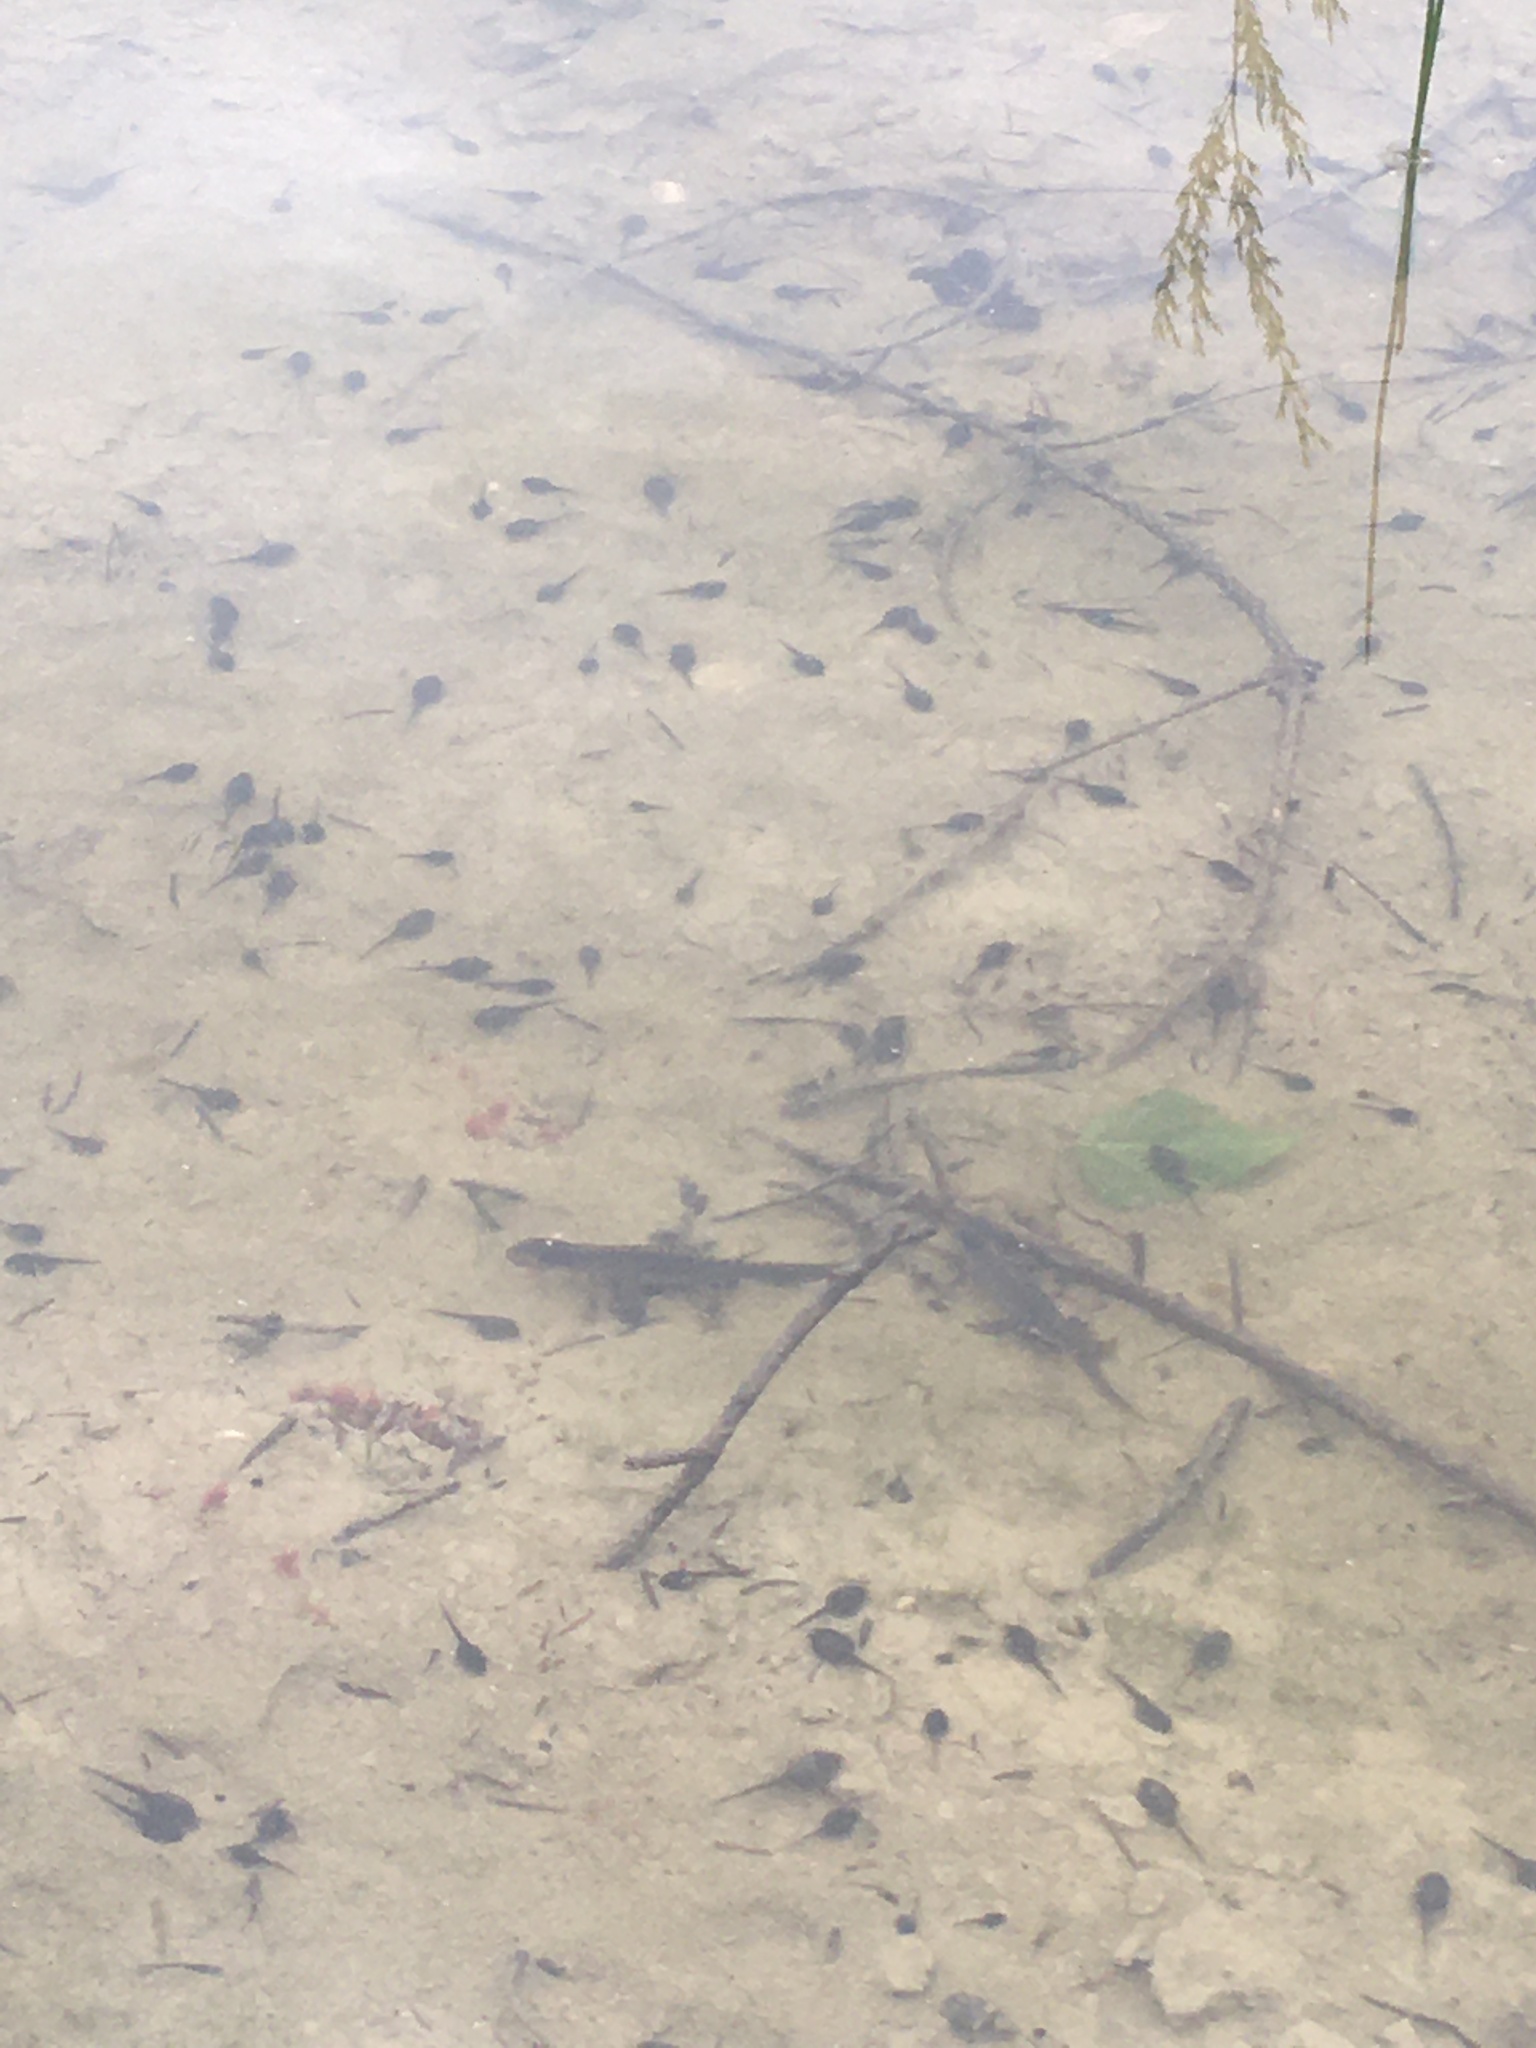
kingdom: Animalia
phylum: Chordata
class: Amphibia
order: Caudata
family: Salamandridae
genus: Ichthyosaura
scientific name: Ichthyosaura alpestris
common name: Alpine newt
